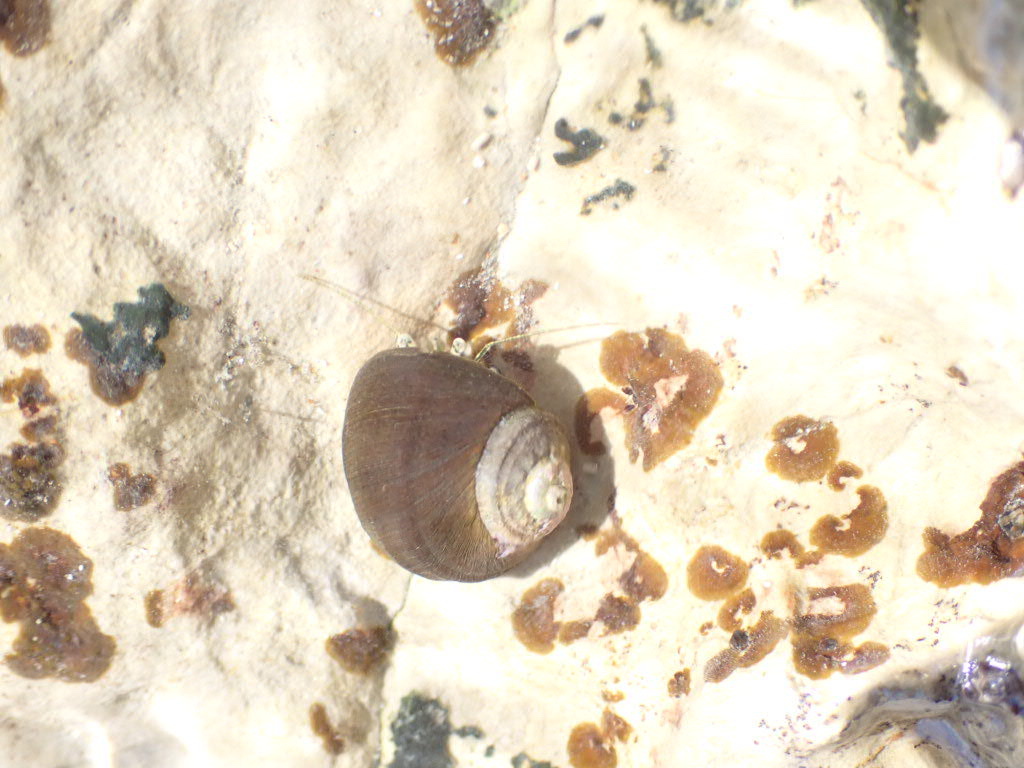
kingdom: Animalia
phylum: Mollusca
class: Gastropoda
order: Trochida
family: Turbinidae
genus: Lunella
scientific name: Lunella smaragda
